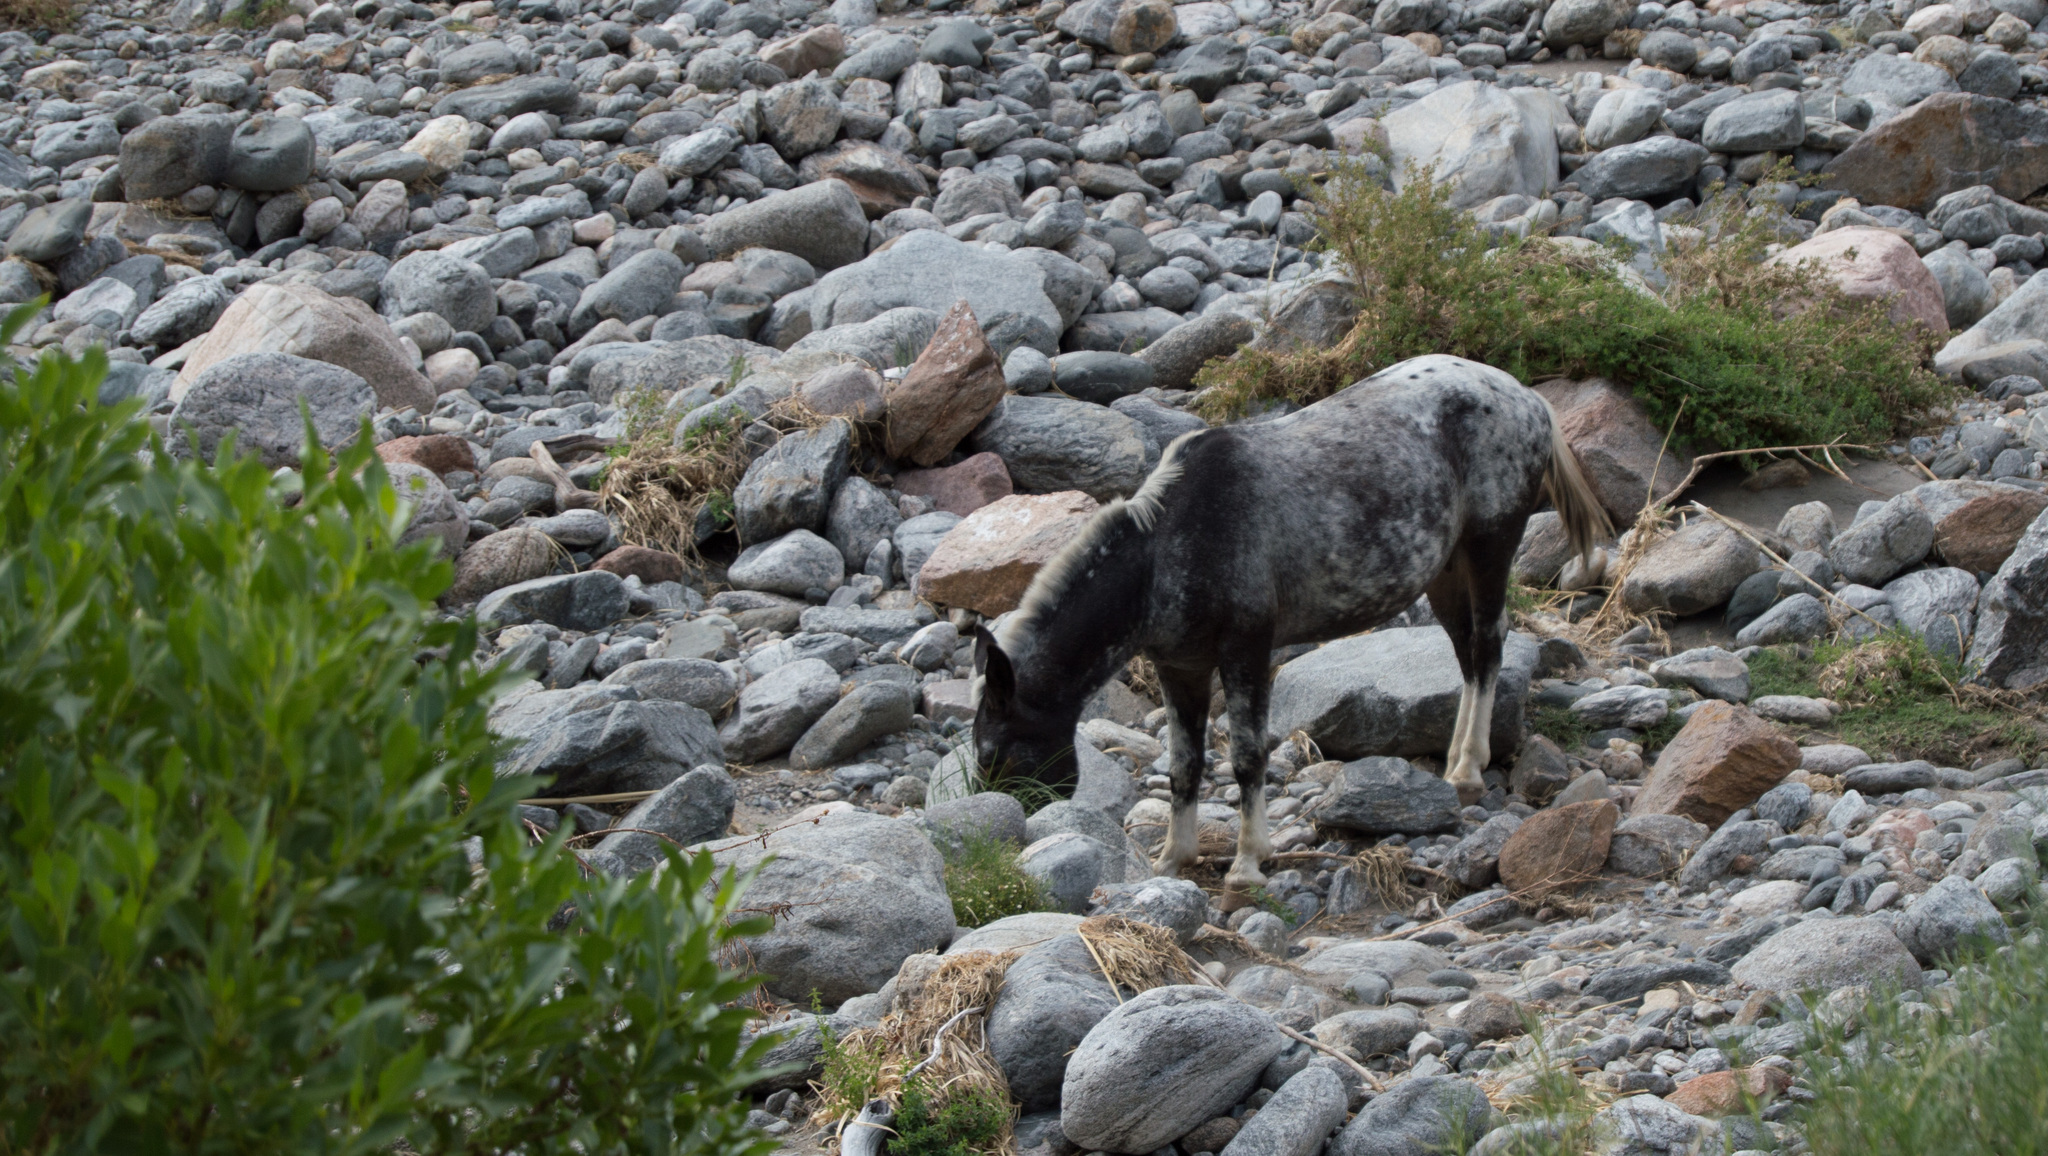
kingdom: Animalia
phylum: Chordata
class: Mammalia
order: Perissodactyla
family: Equidae
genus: Equus
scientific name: Equus caballus
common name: Horse
